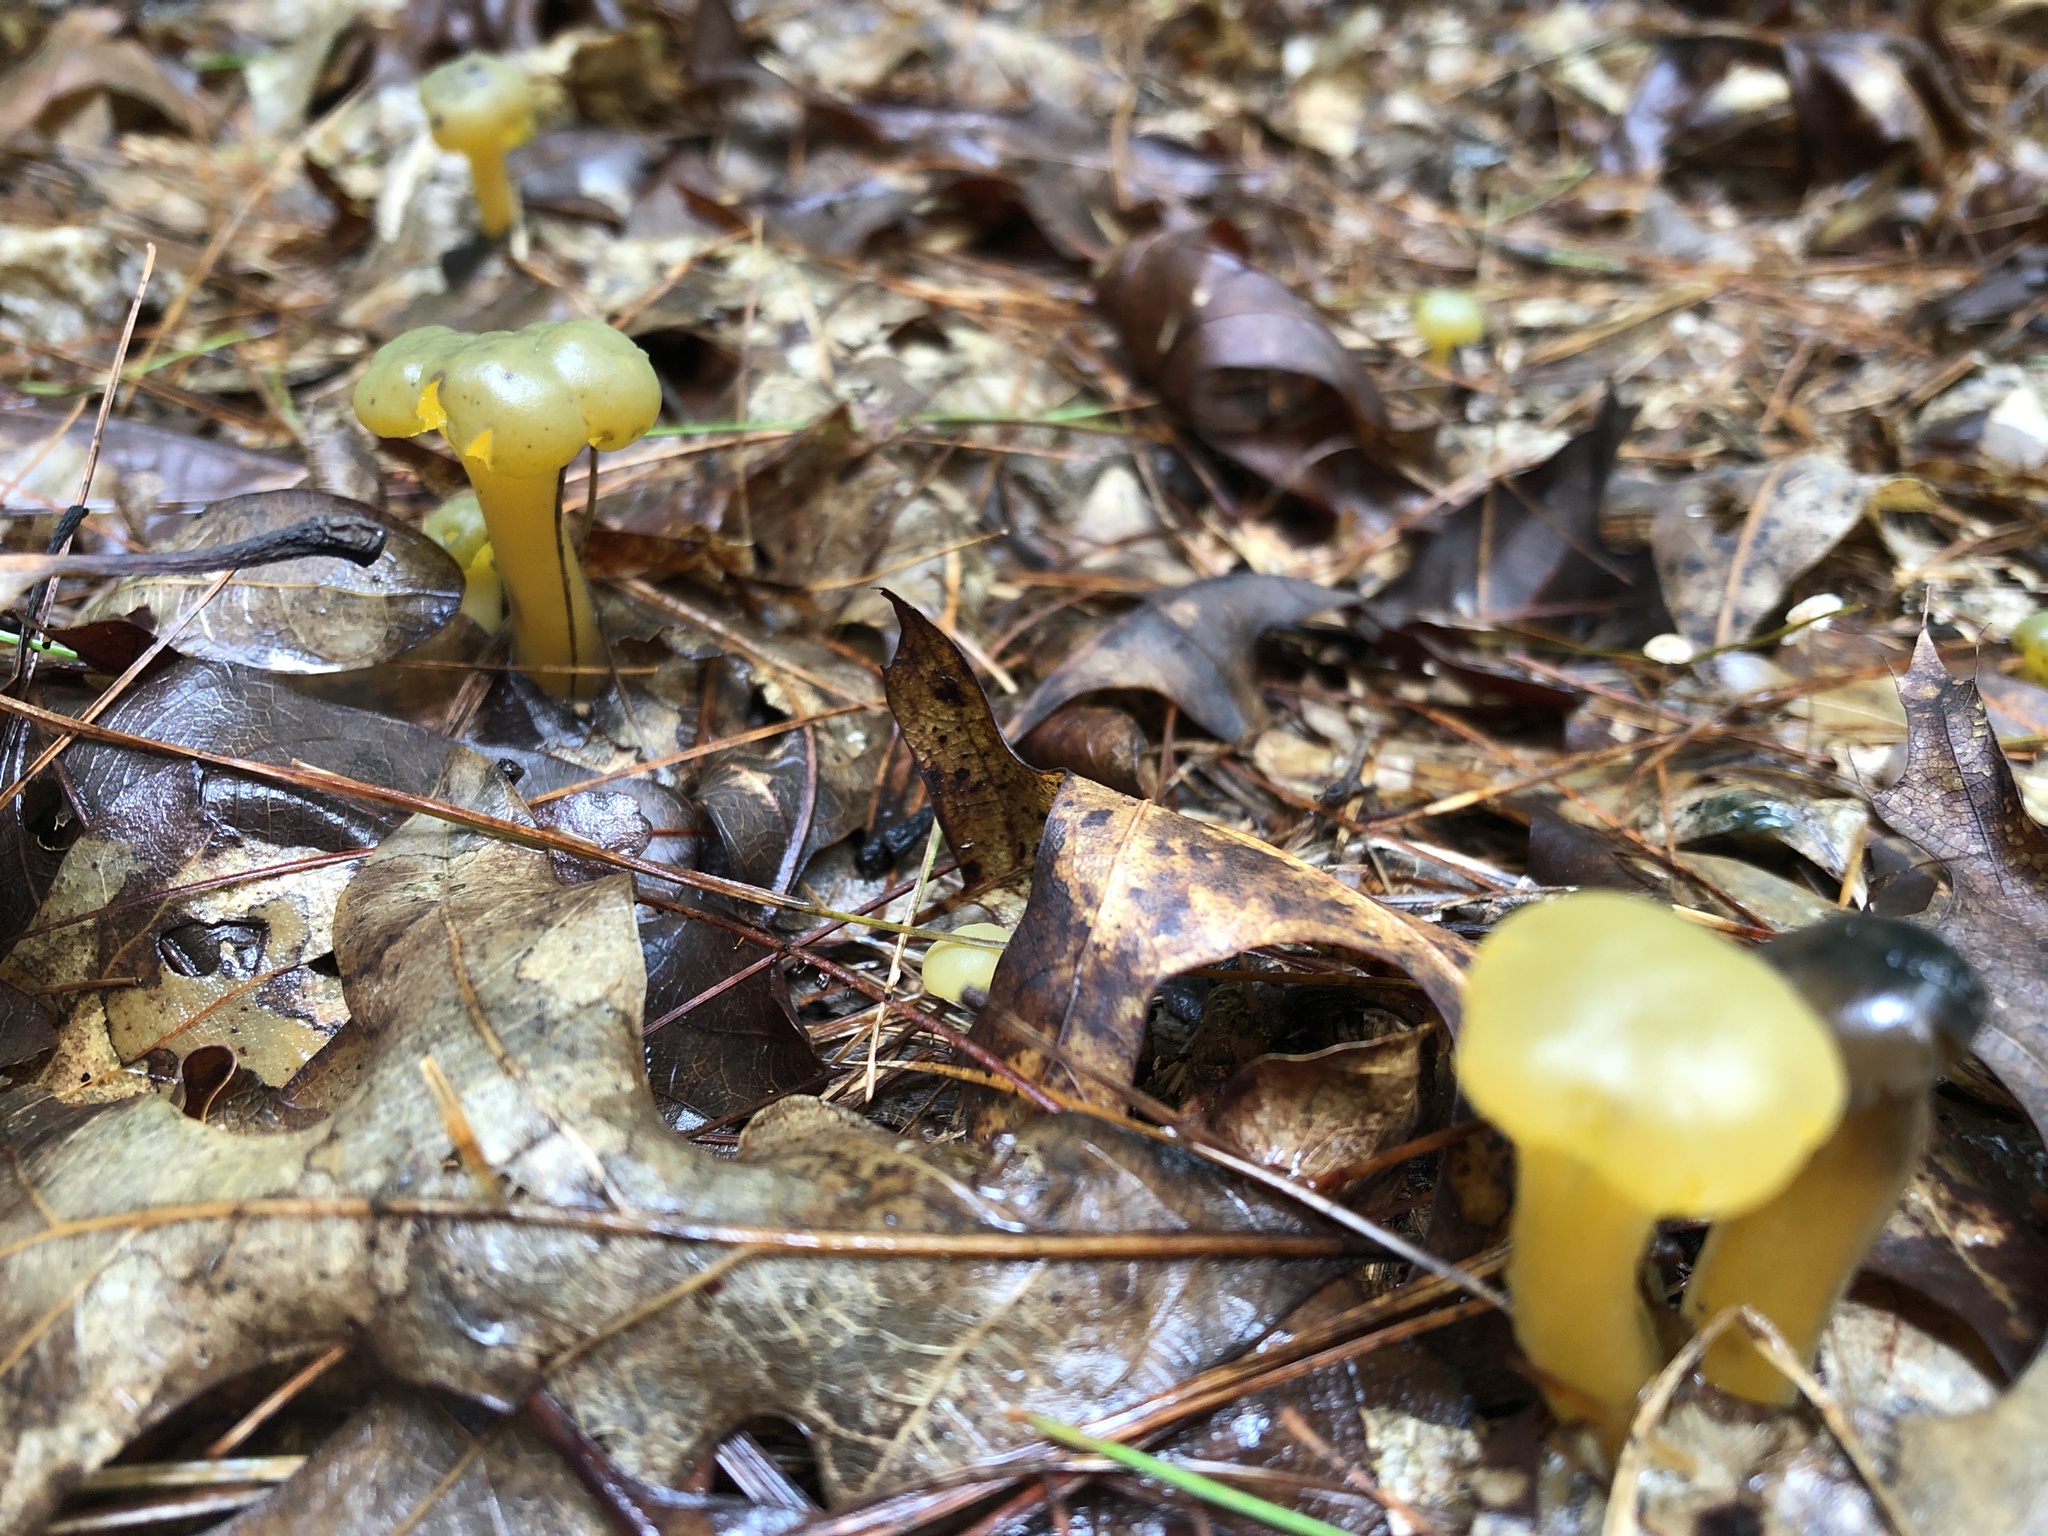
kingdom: Fungi
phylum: Ascomycota
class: Leotiomycetes
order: Leotiales
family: Leotiaceae
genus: Leotia
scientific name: Leotia lubrica
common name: Jellybaby
